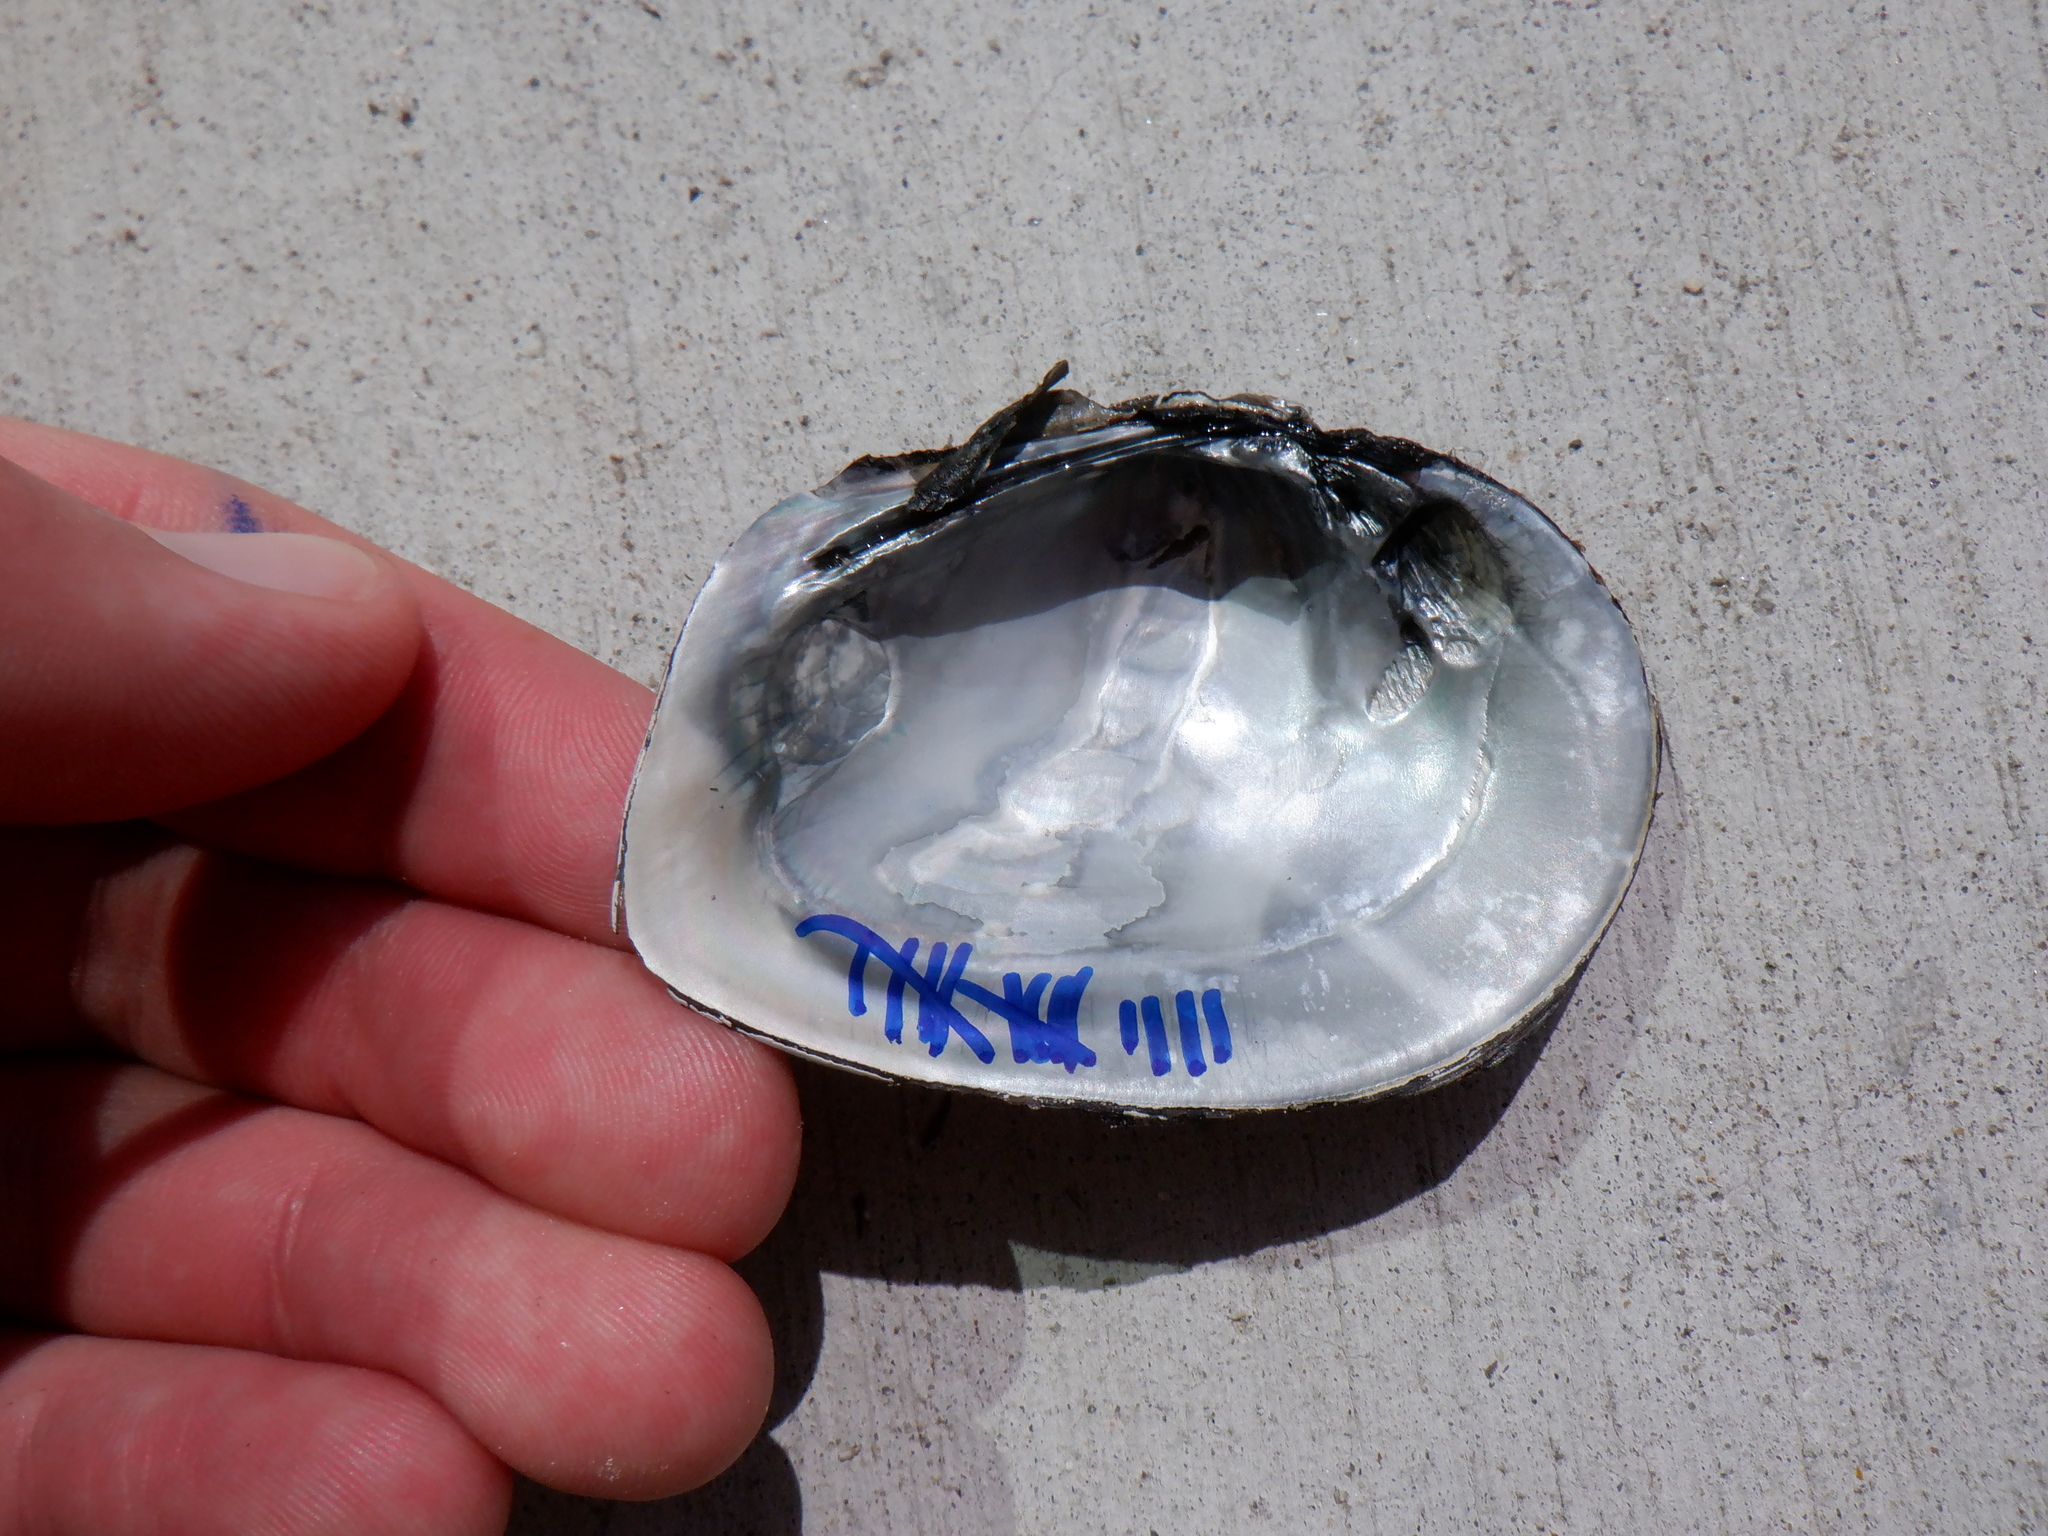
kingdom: Animalia
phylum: Mollusca
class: Bivalvia
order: Unionida
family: Unionidae
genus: Fusconaia
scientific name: Fusconaia flava
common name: Wabash pigtoe
